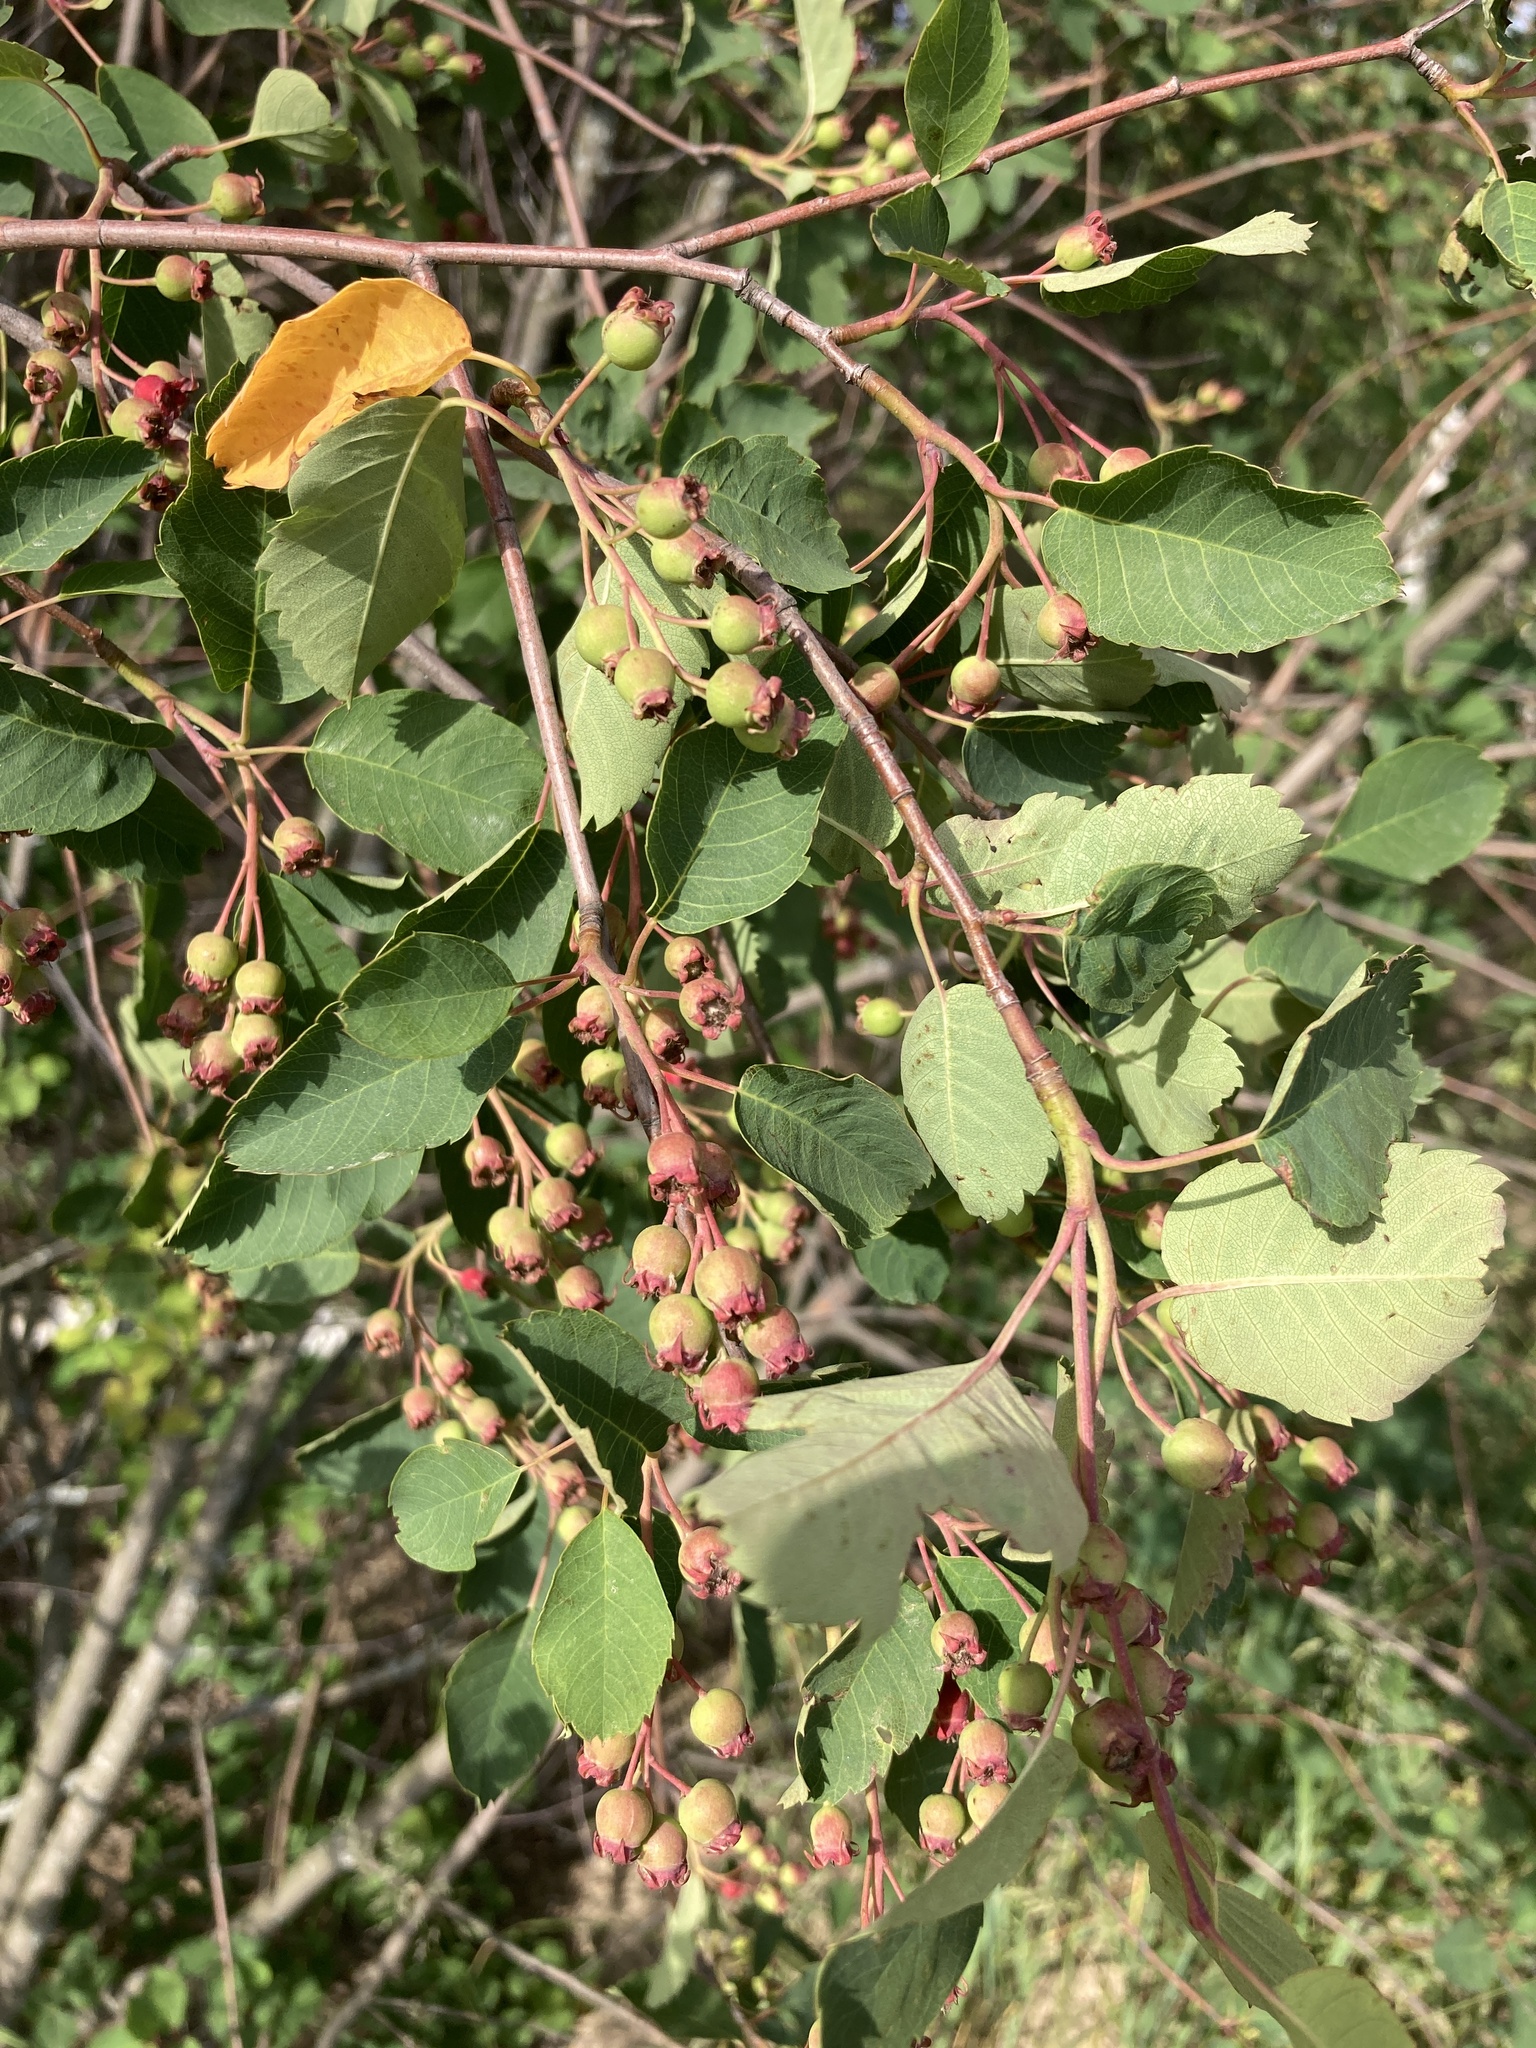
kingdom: Plantae
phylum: Tracheophyta
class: Magnoliopsida
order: Rosales
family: Rosaceae
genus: Amelanchier
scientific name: Amelanchier alnifolia
